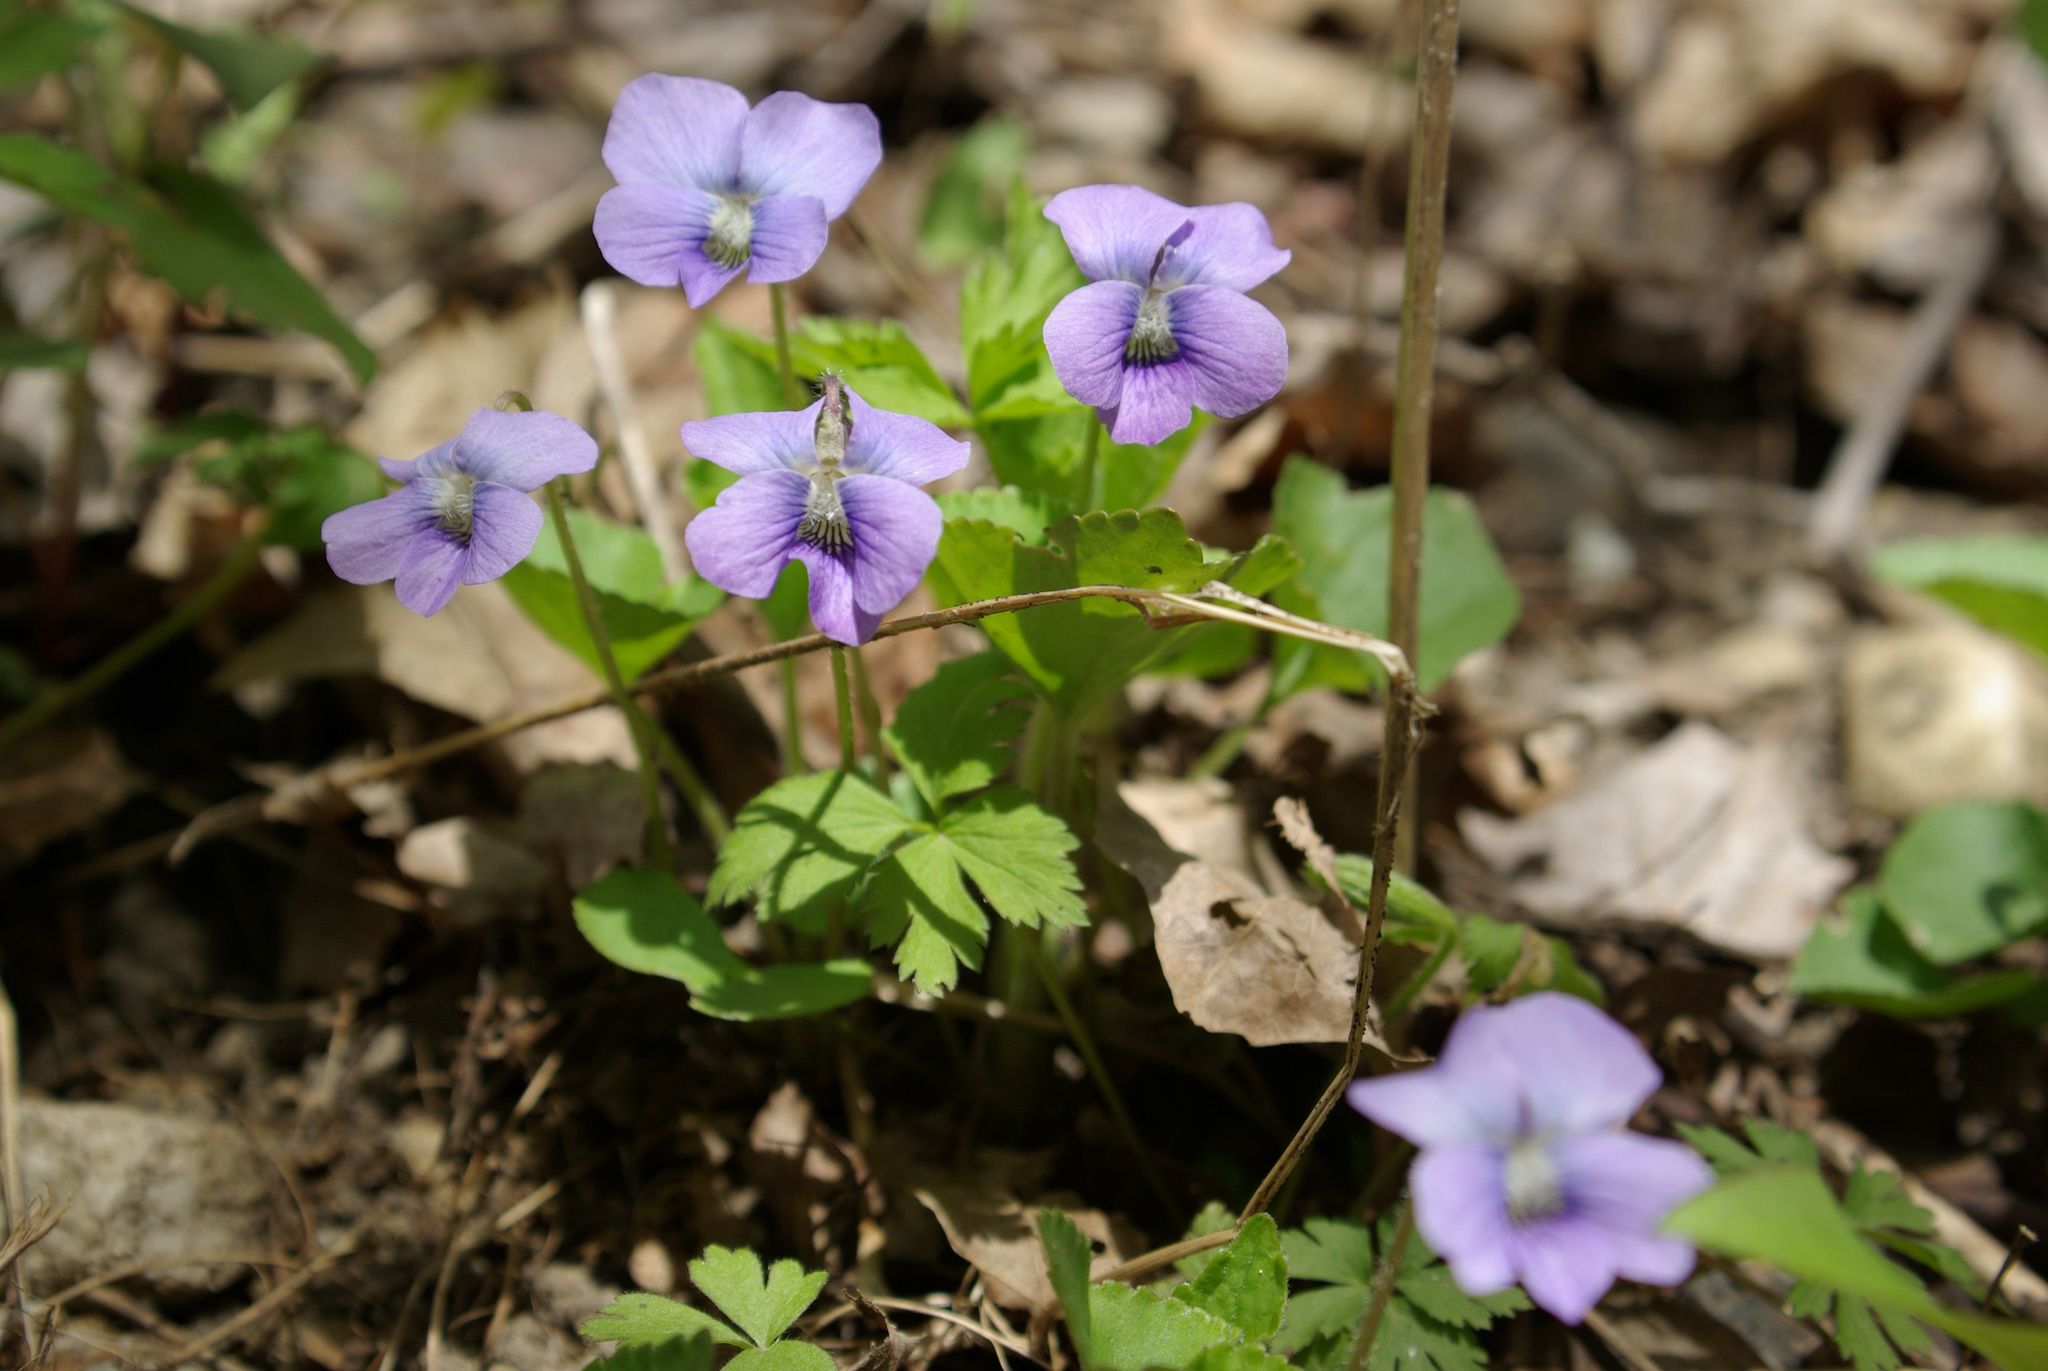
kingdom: Plantae
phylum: Tracheophyta
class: Magnoliopsida
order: Malpighiales
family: Violaceae
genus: Viola
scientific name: Viola sororia
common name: Dooryard violet
